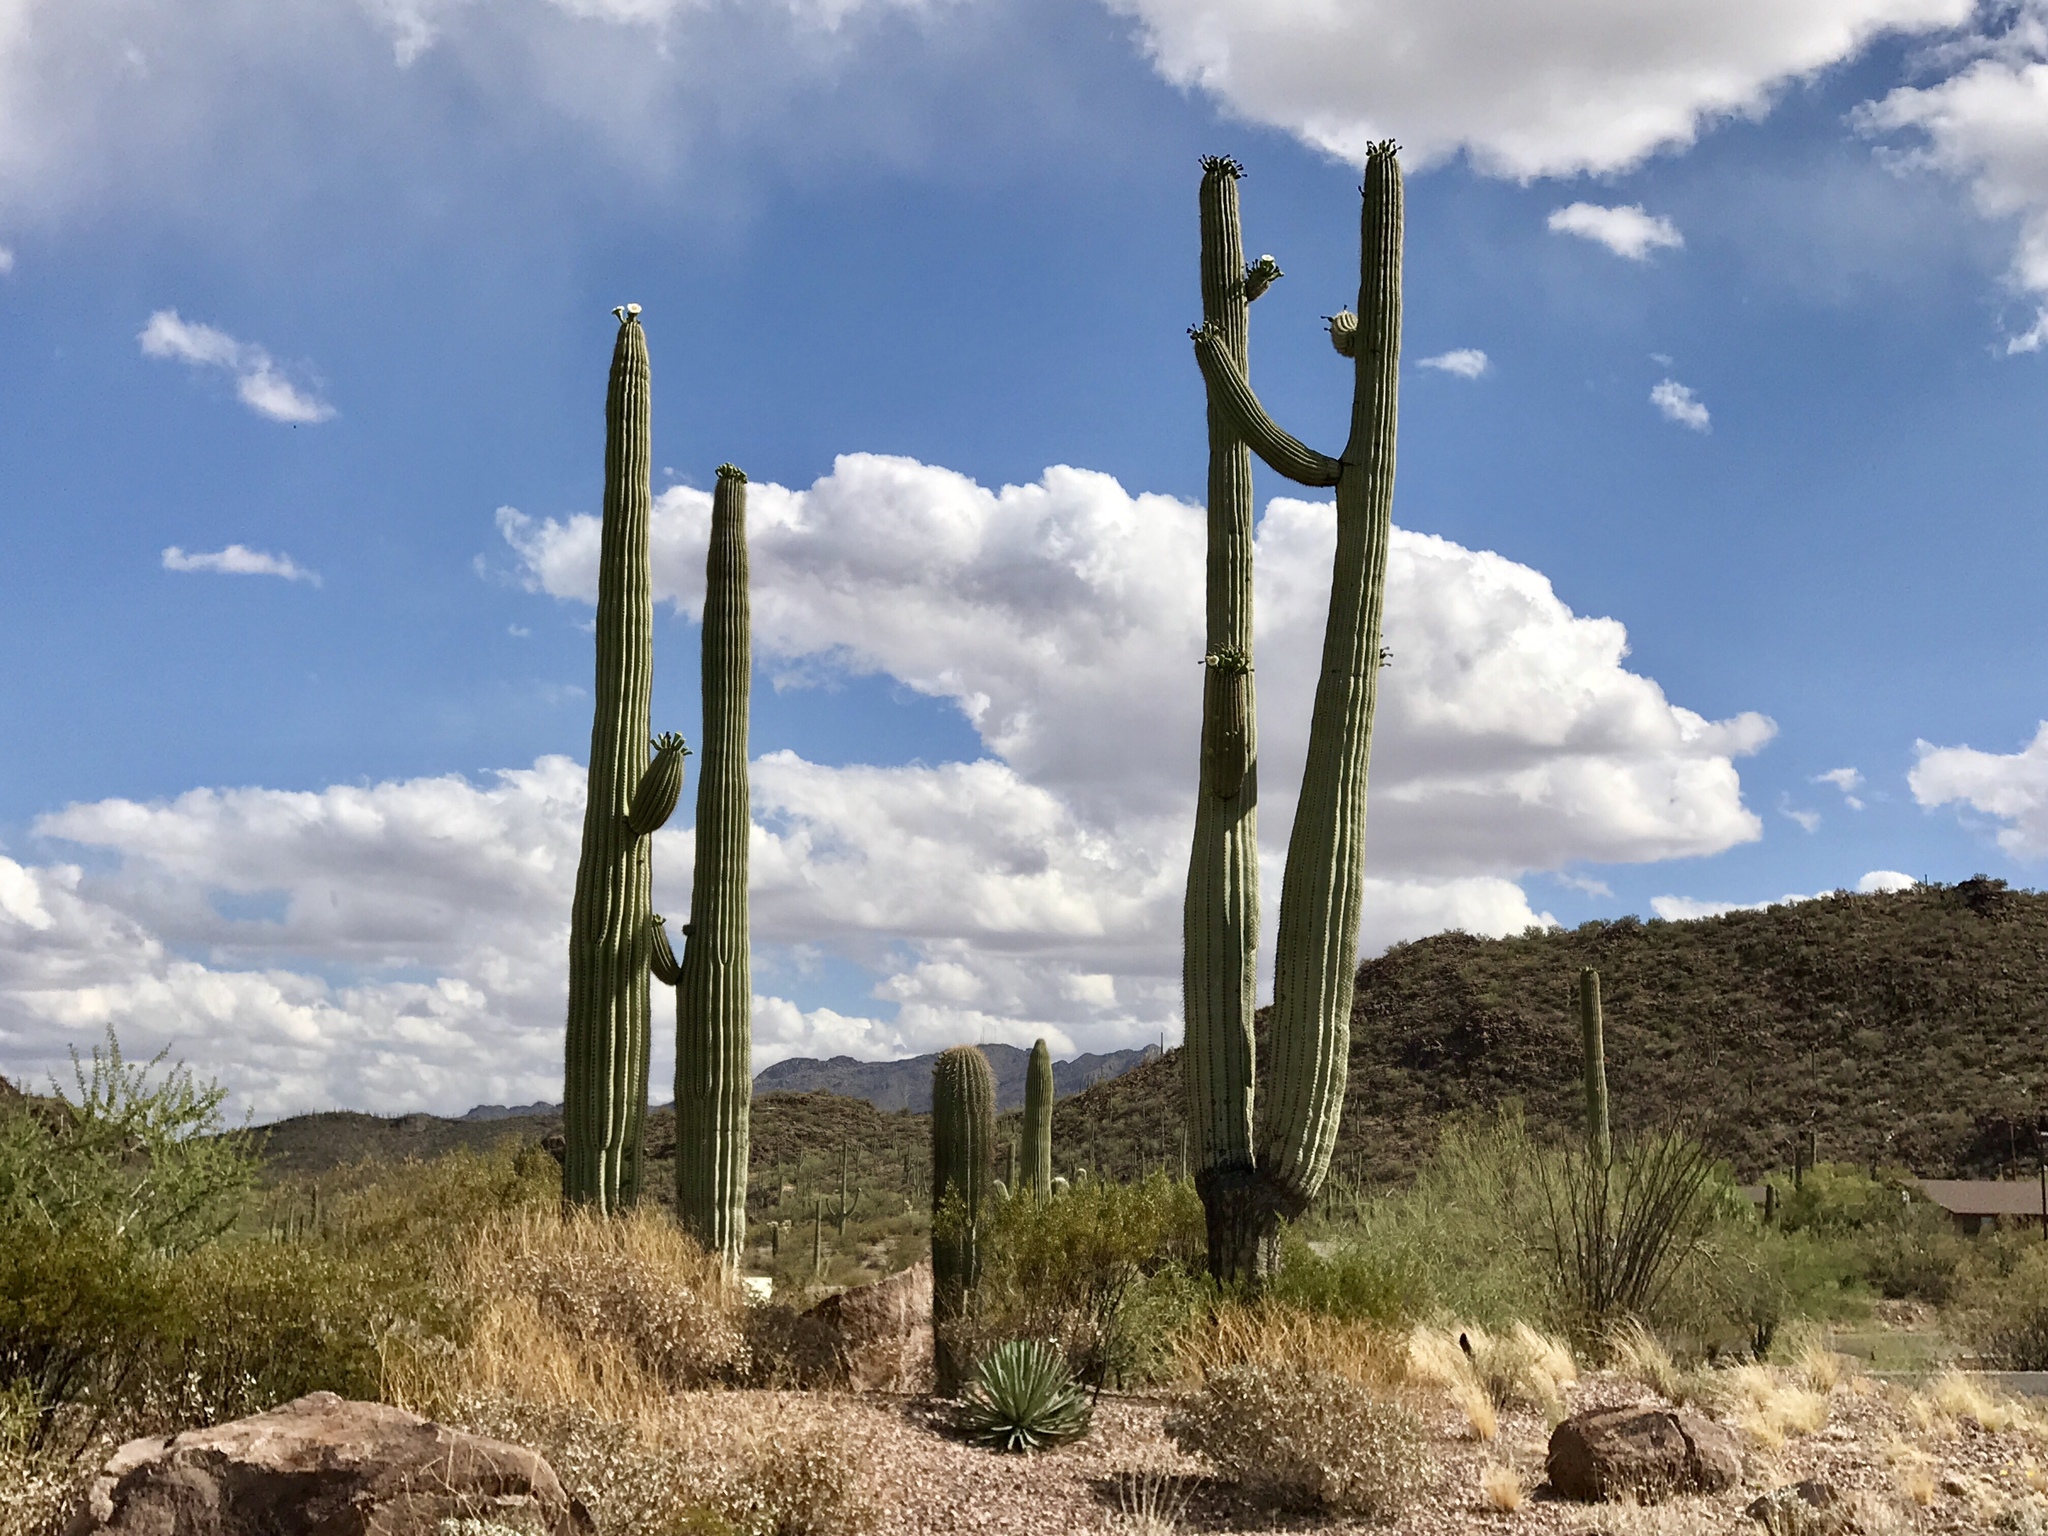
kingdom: Plantae
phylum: Tracheophyta
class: Magnoliopsida
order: Caryophyllales
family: Cactaceae
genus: Carnegiea
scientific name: Carnegiea gigantea
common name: Saguaro
